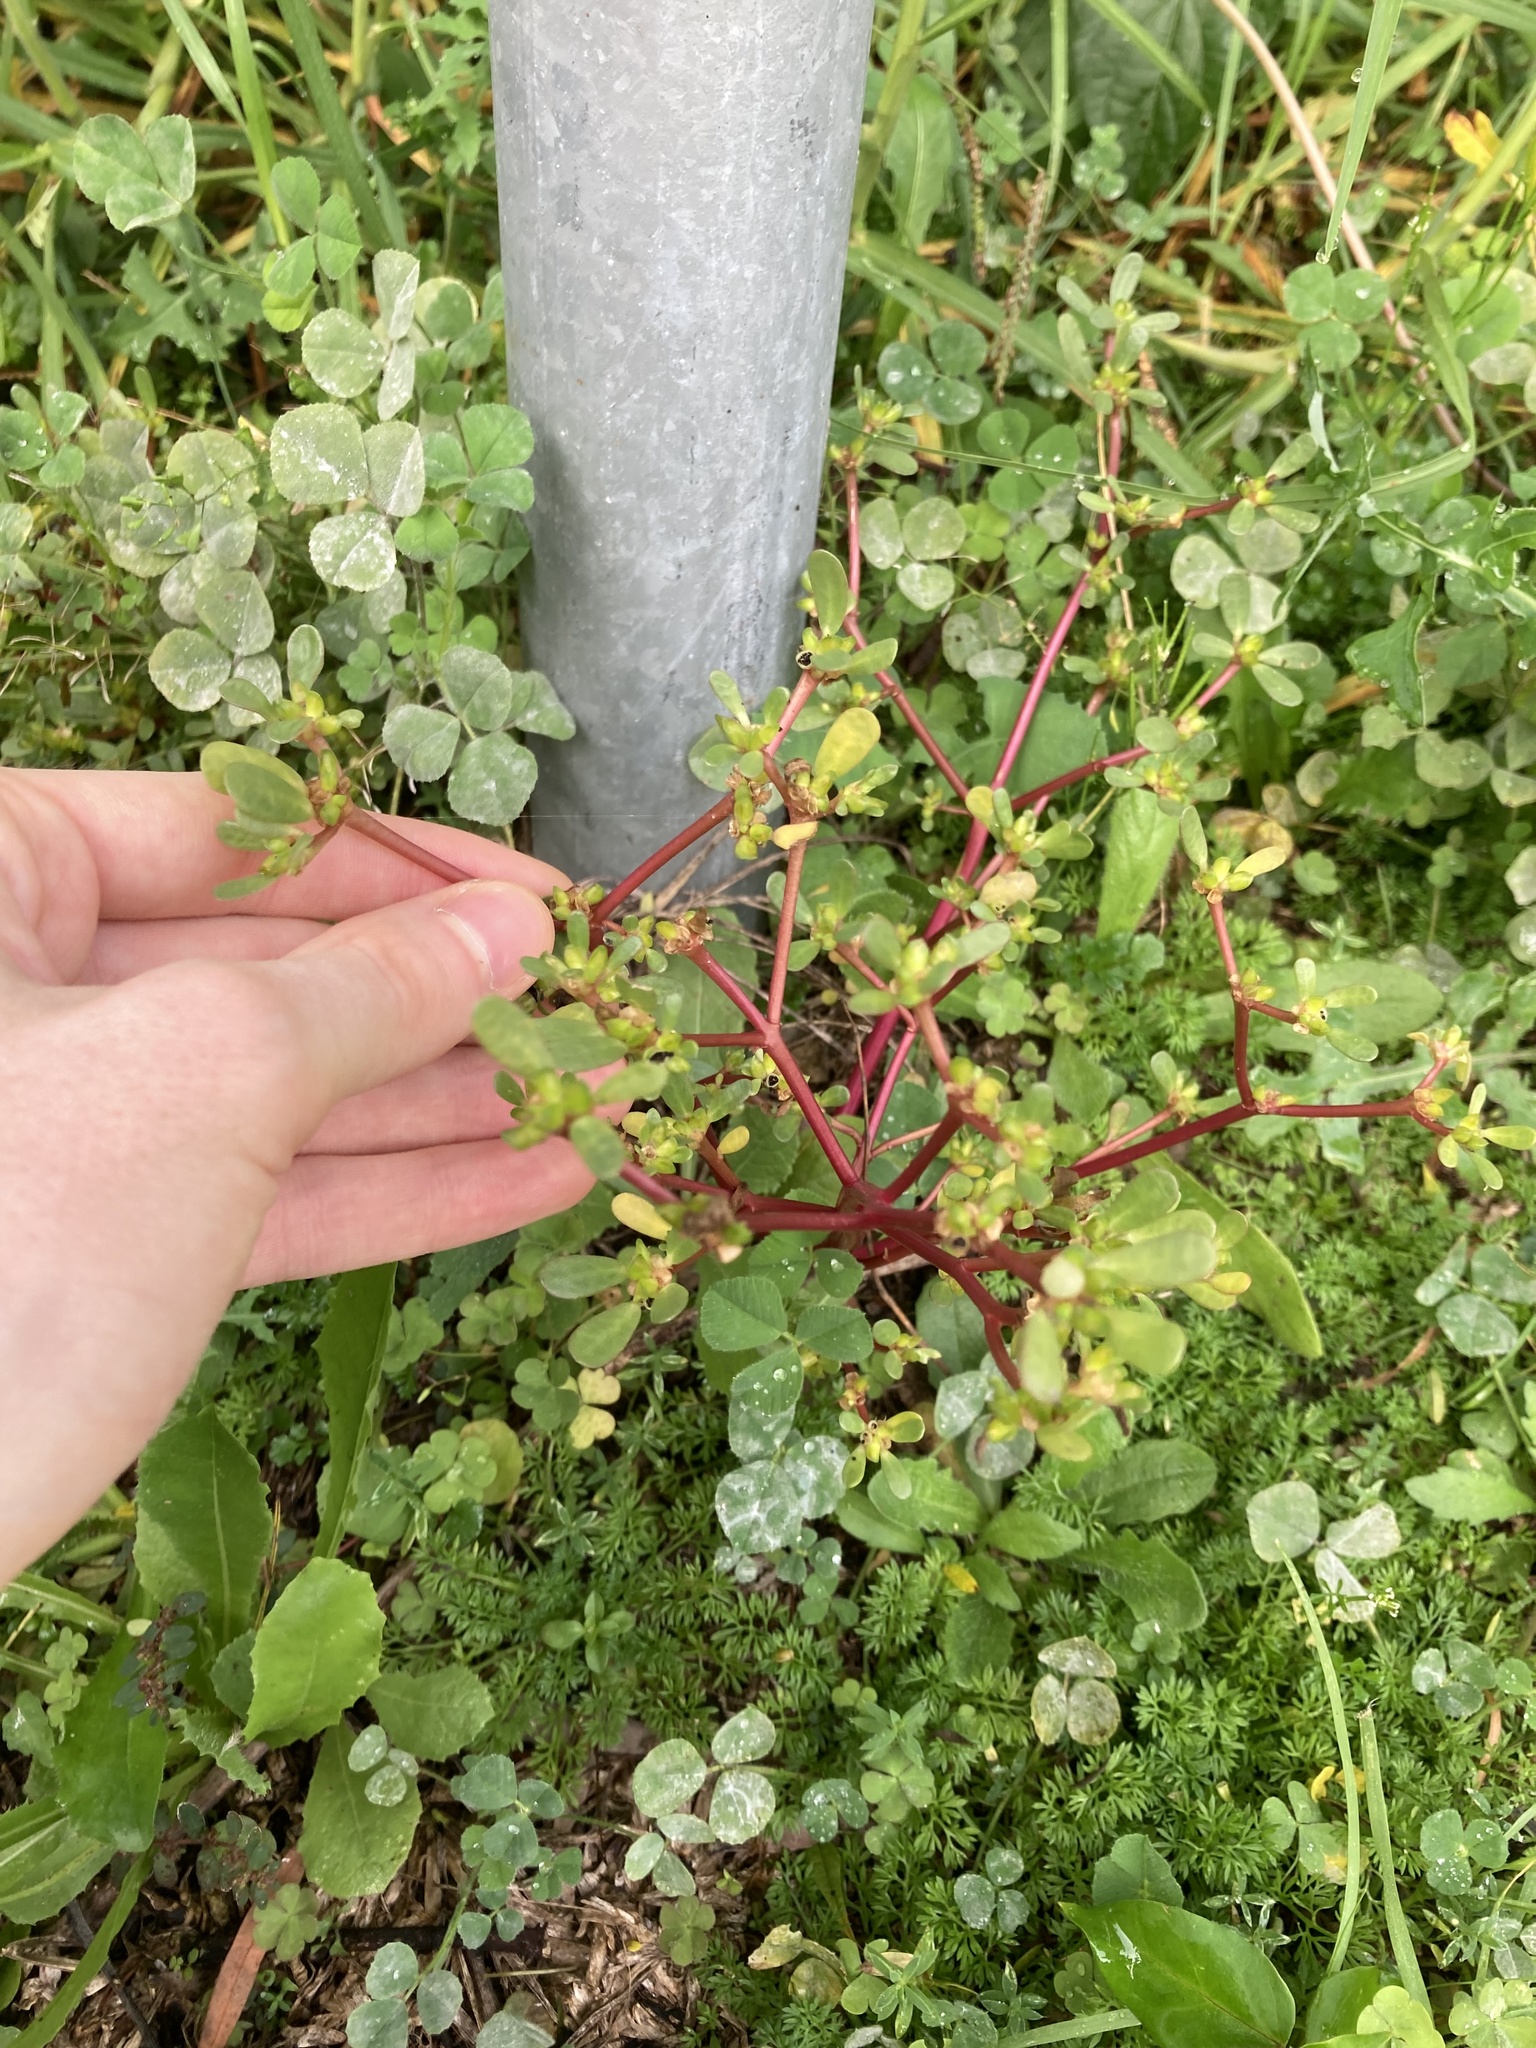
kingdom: Plantae
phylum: Tracheophyta
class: Magnoliopsida
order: Caryophyllales
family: Portulacaceae
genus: Portulaca
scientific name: Portulaca oleracea
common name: Common purslane
